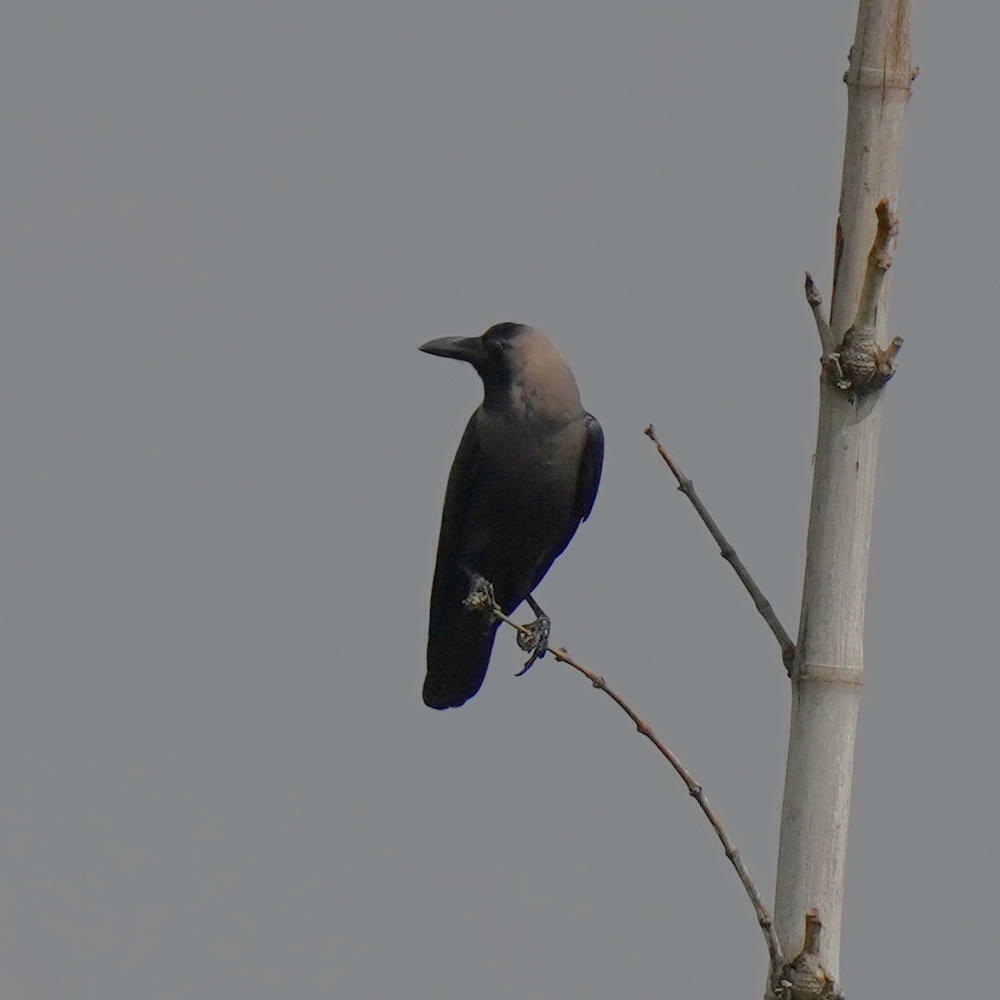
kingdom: Animalia
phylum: Chordata
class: Aves
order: Passeriformes
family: Corvidae
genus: Corvus
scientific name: Corvus splendens
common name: House crow
